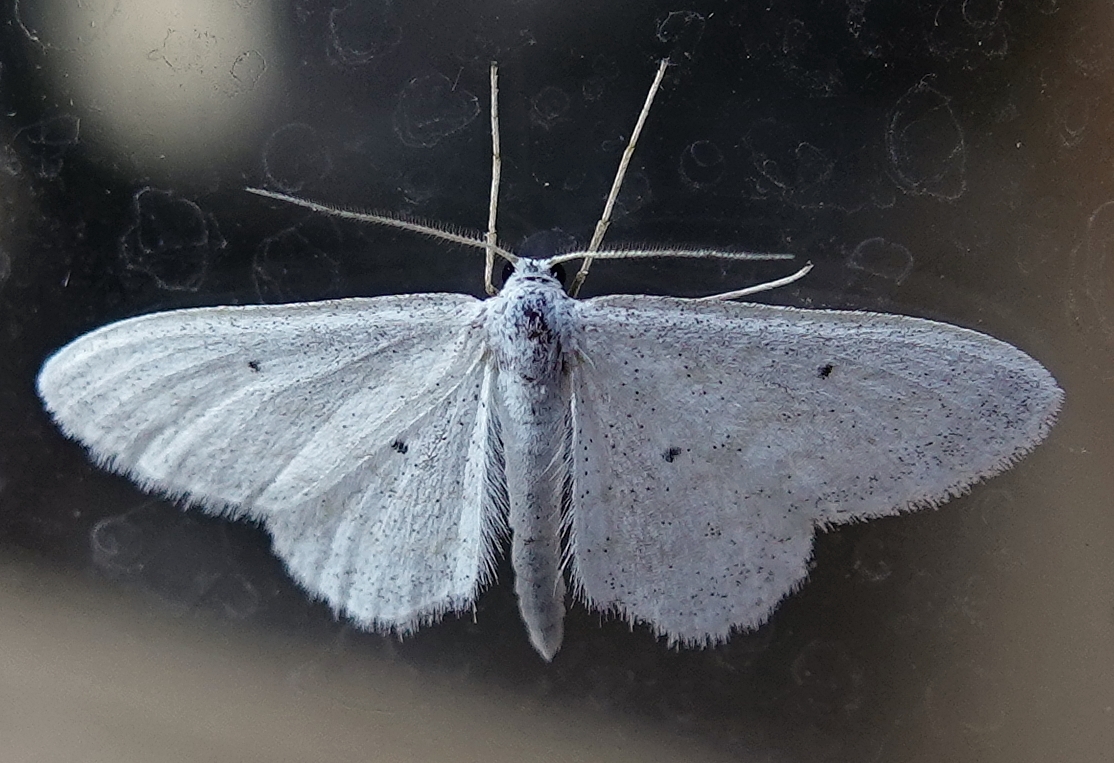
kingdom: Animalia
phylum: Arthropoda
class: Insecta
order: Lepidoptera
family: Geometridae
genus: Lobocleta
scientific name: Lobocleta peralbata
